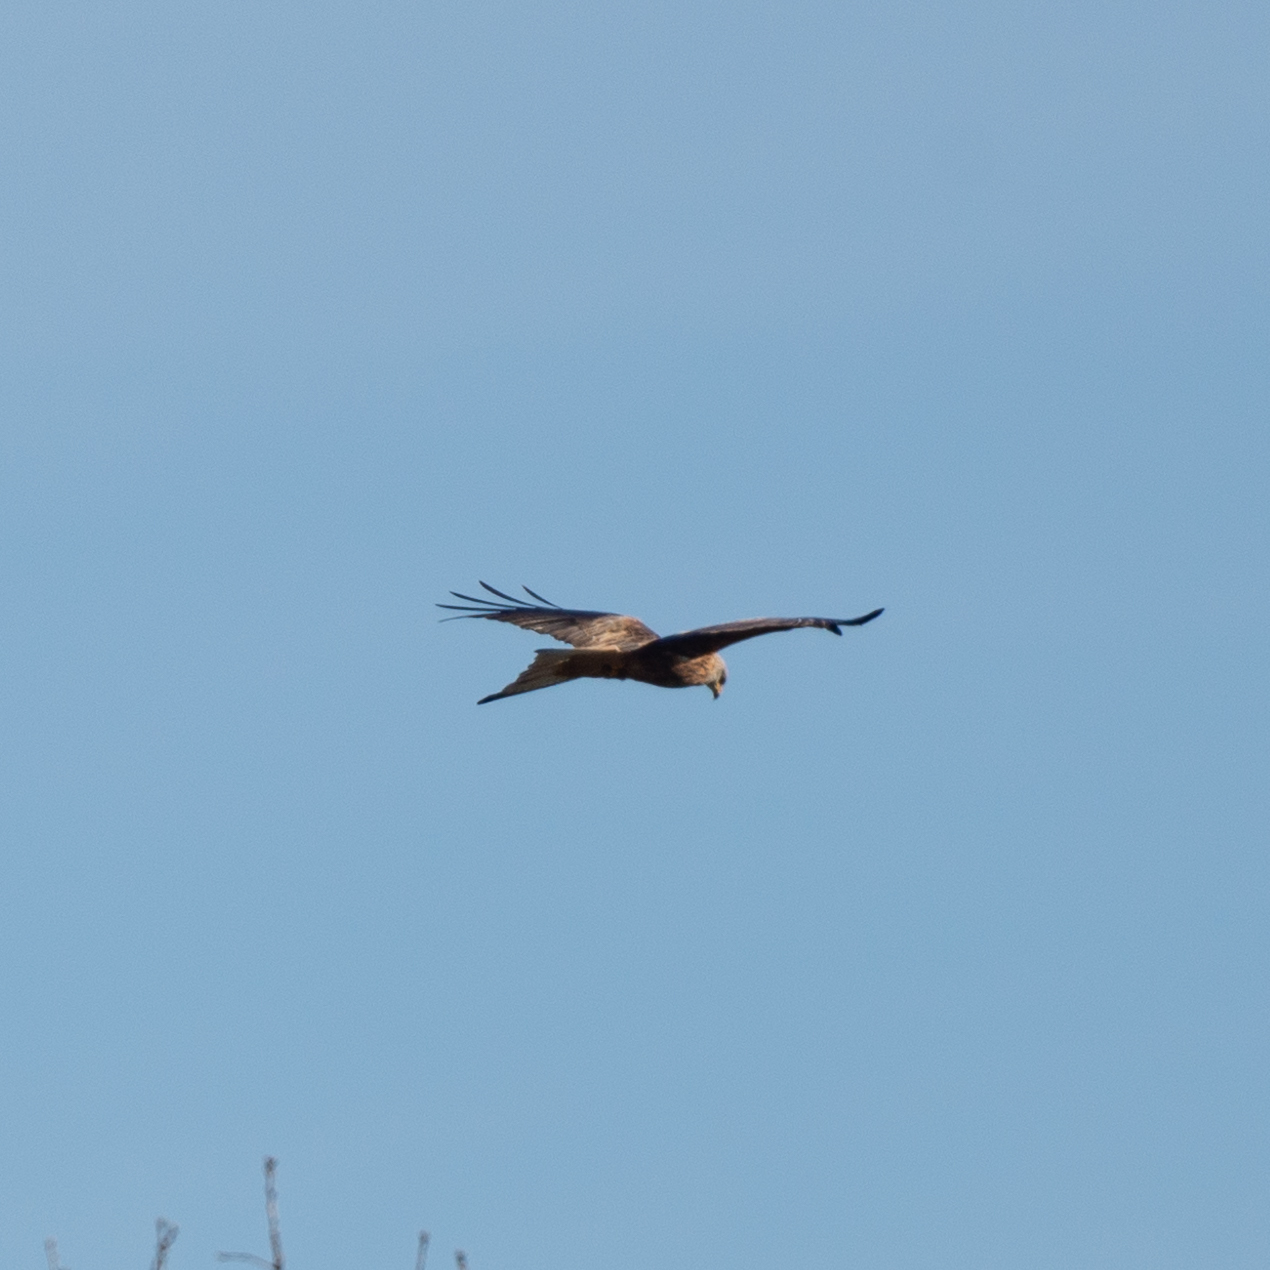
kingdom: Animalia
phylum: Chordata
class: Aves
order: Accipitriformes
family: Accipitridae
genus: Milvus
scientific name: Milvus milvus
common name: Red kite
